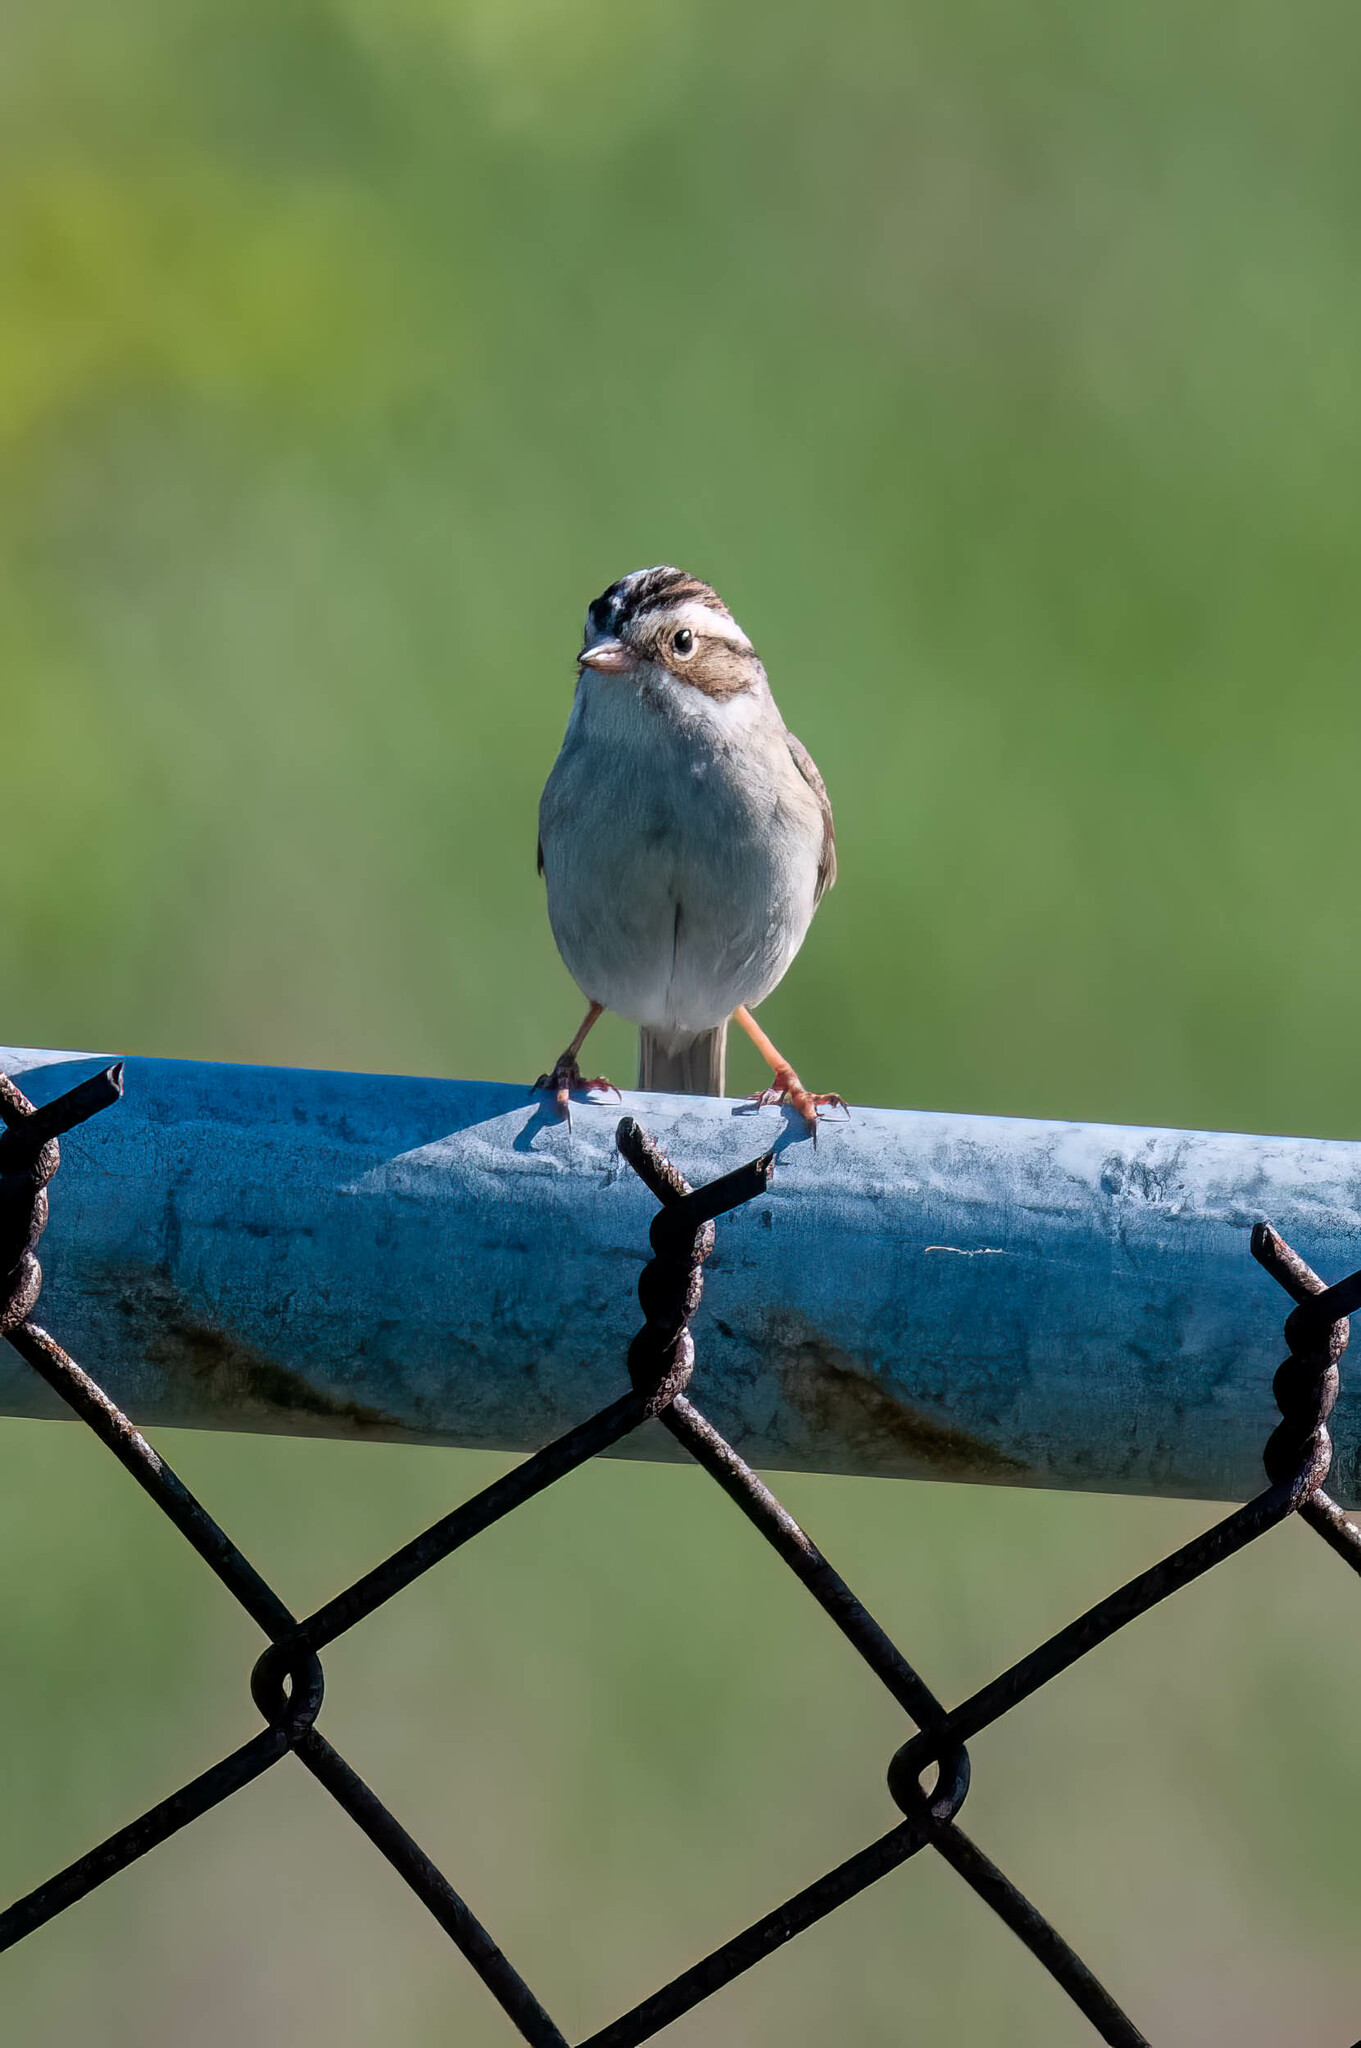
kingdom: Animalia
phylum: Chordata
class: Aves
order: Passeriformes
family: Passerellidae
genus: Spizella
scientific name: Spizella pallida
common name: Clay-colored sparrow
